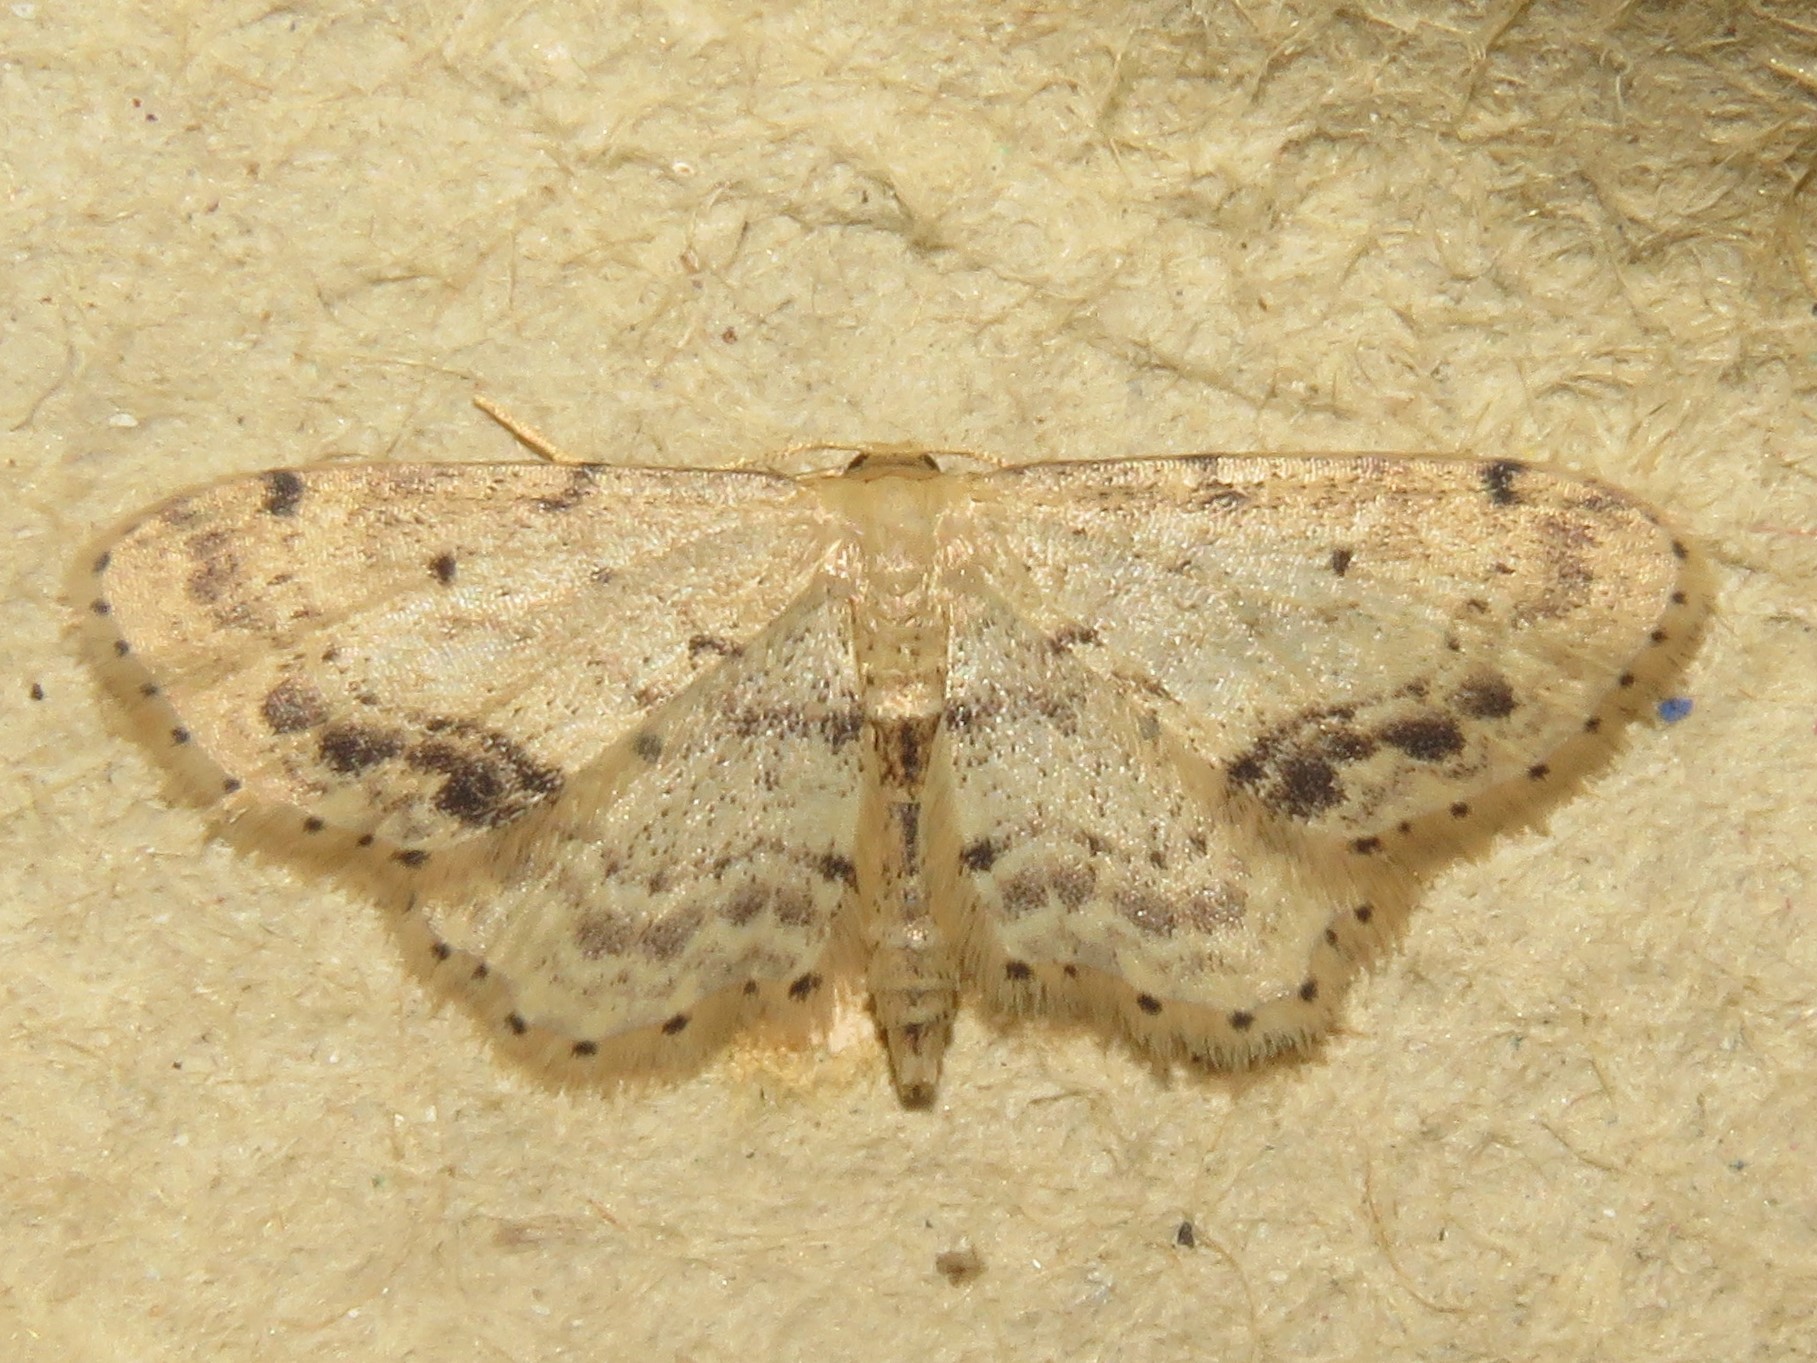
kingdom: Animalia
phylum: Arthropoda
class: Insecta
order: Lepidoptera
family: Geometridae
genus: Idaea
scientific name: Idaea dimidiata
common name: Single-dotted wave
